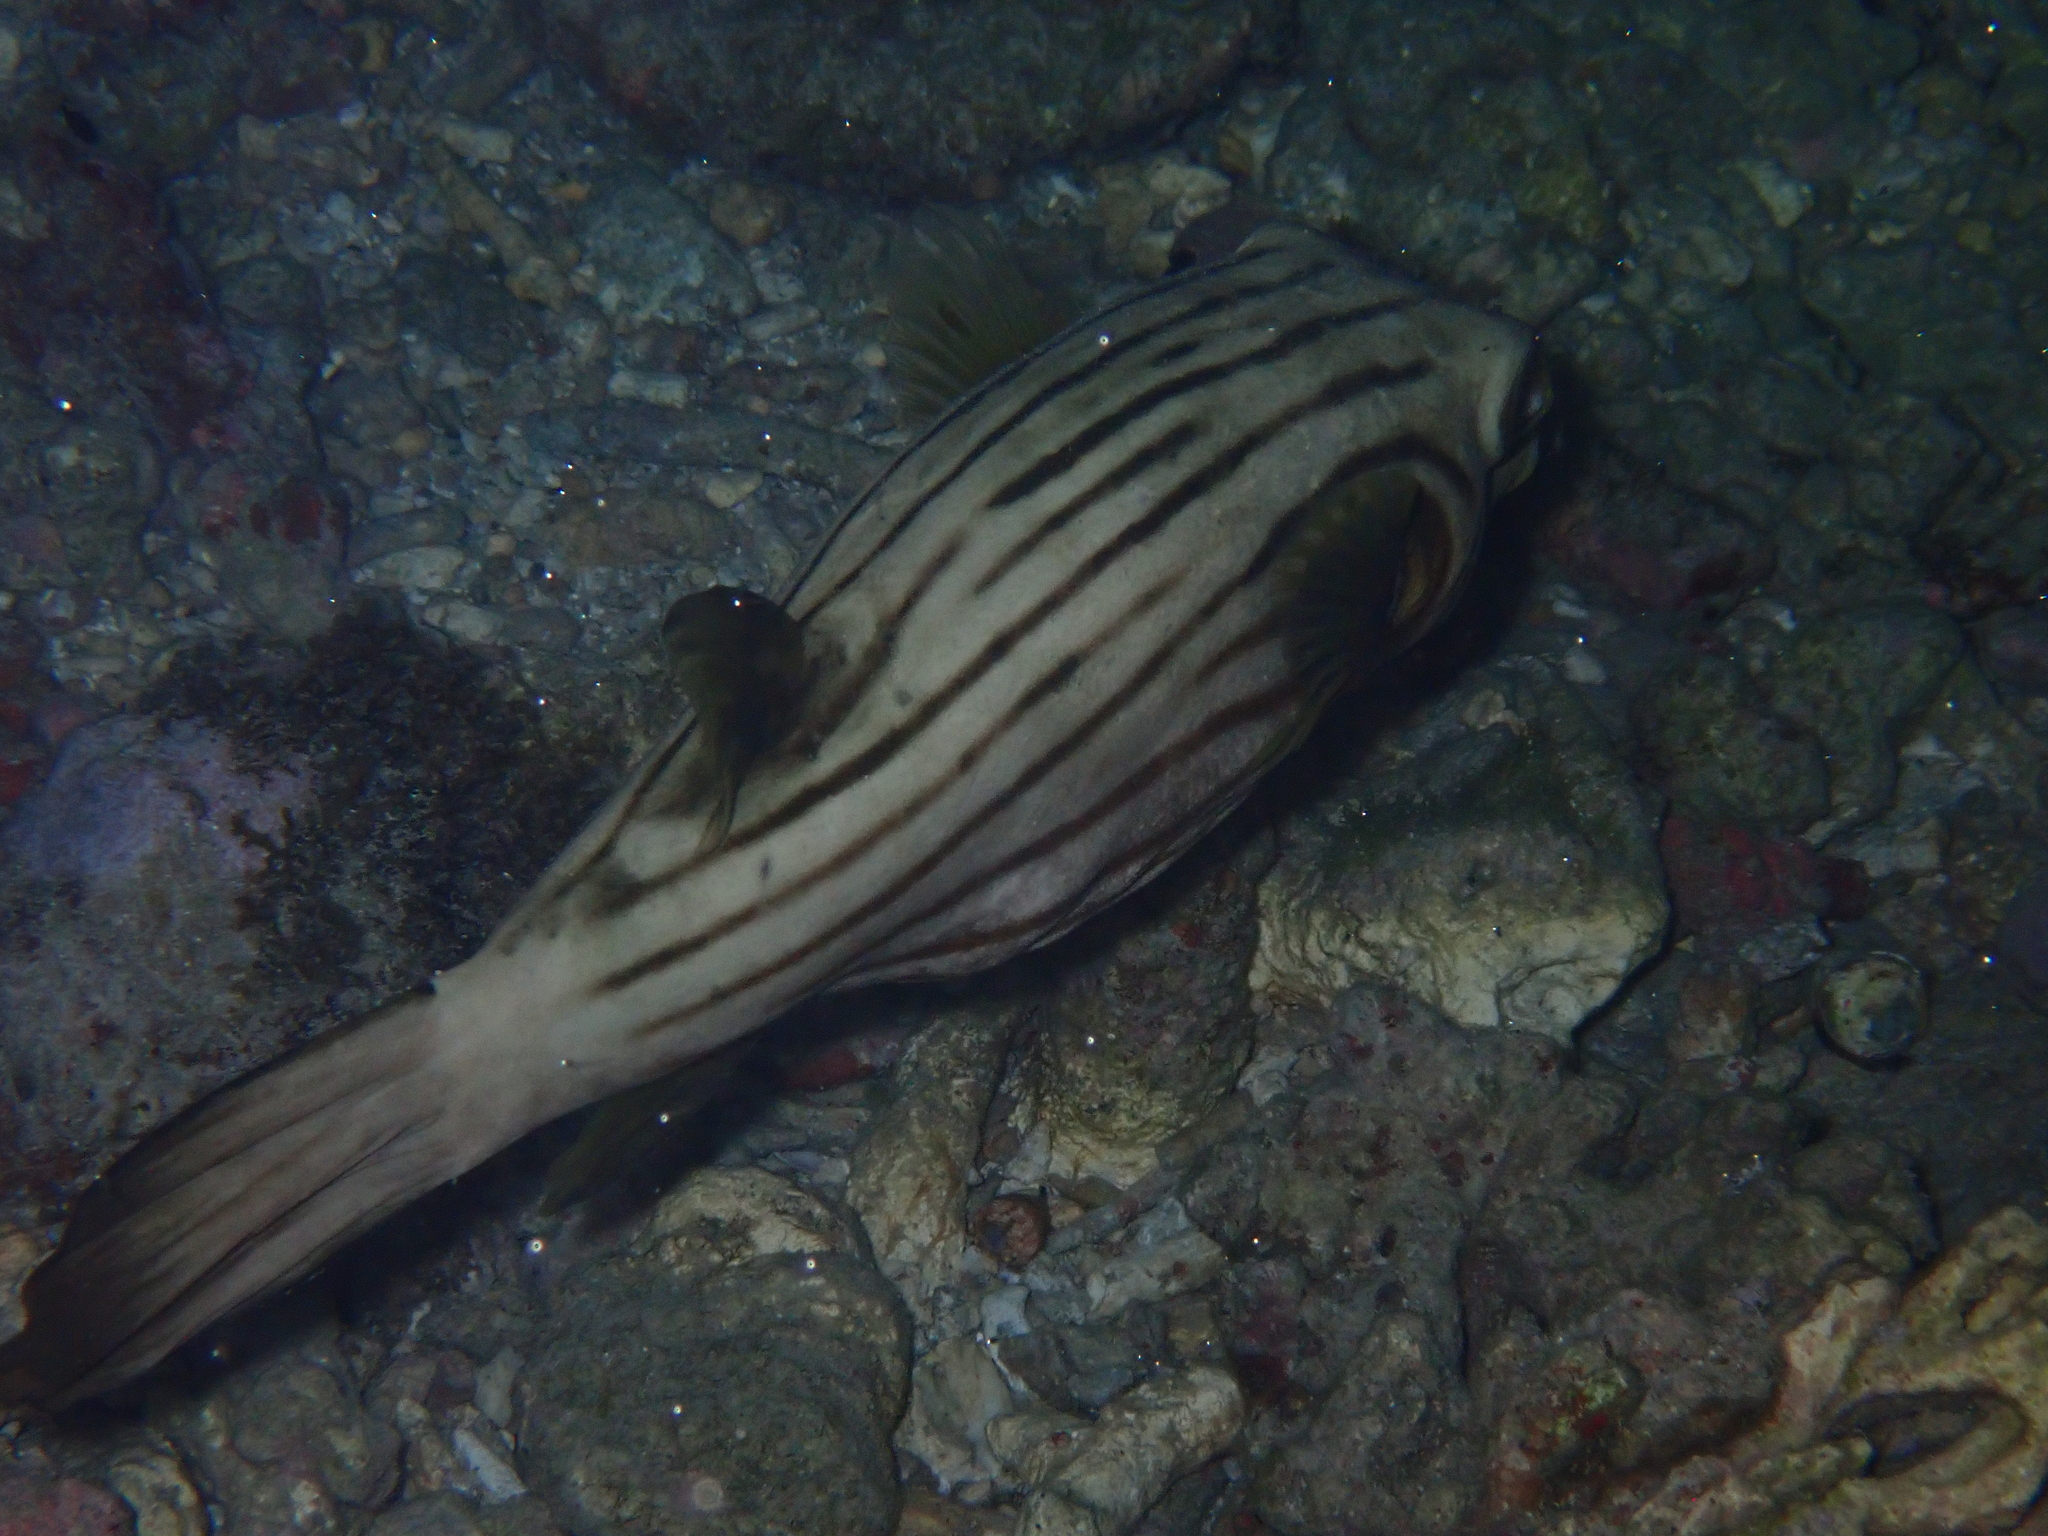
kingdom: Animalia
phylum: Chordata
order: Tetraodontiformes
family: Tetraodontidae
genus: Arothron
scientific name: Arothron manilensis
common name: Narrow-lined puffer
